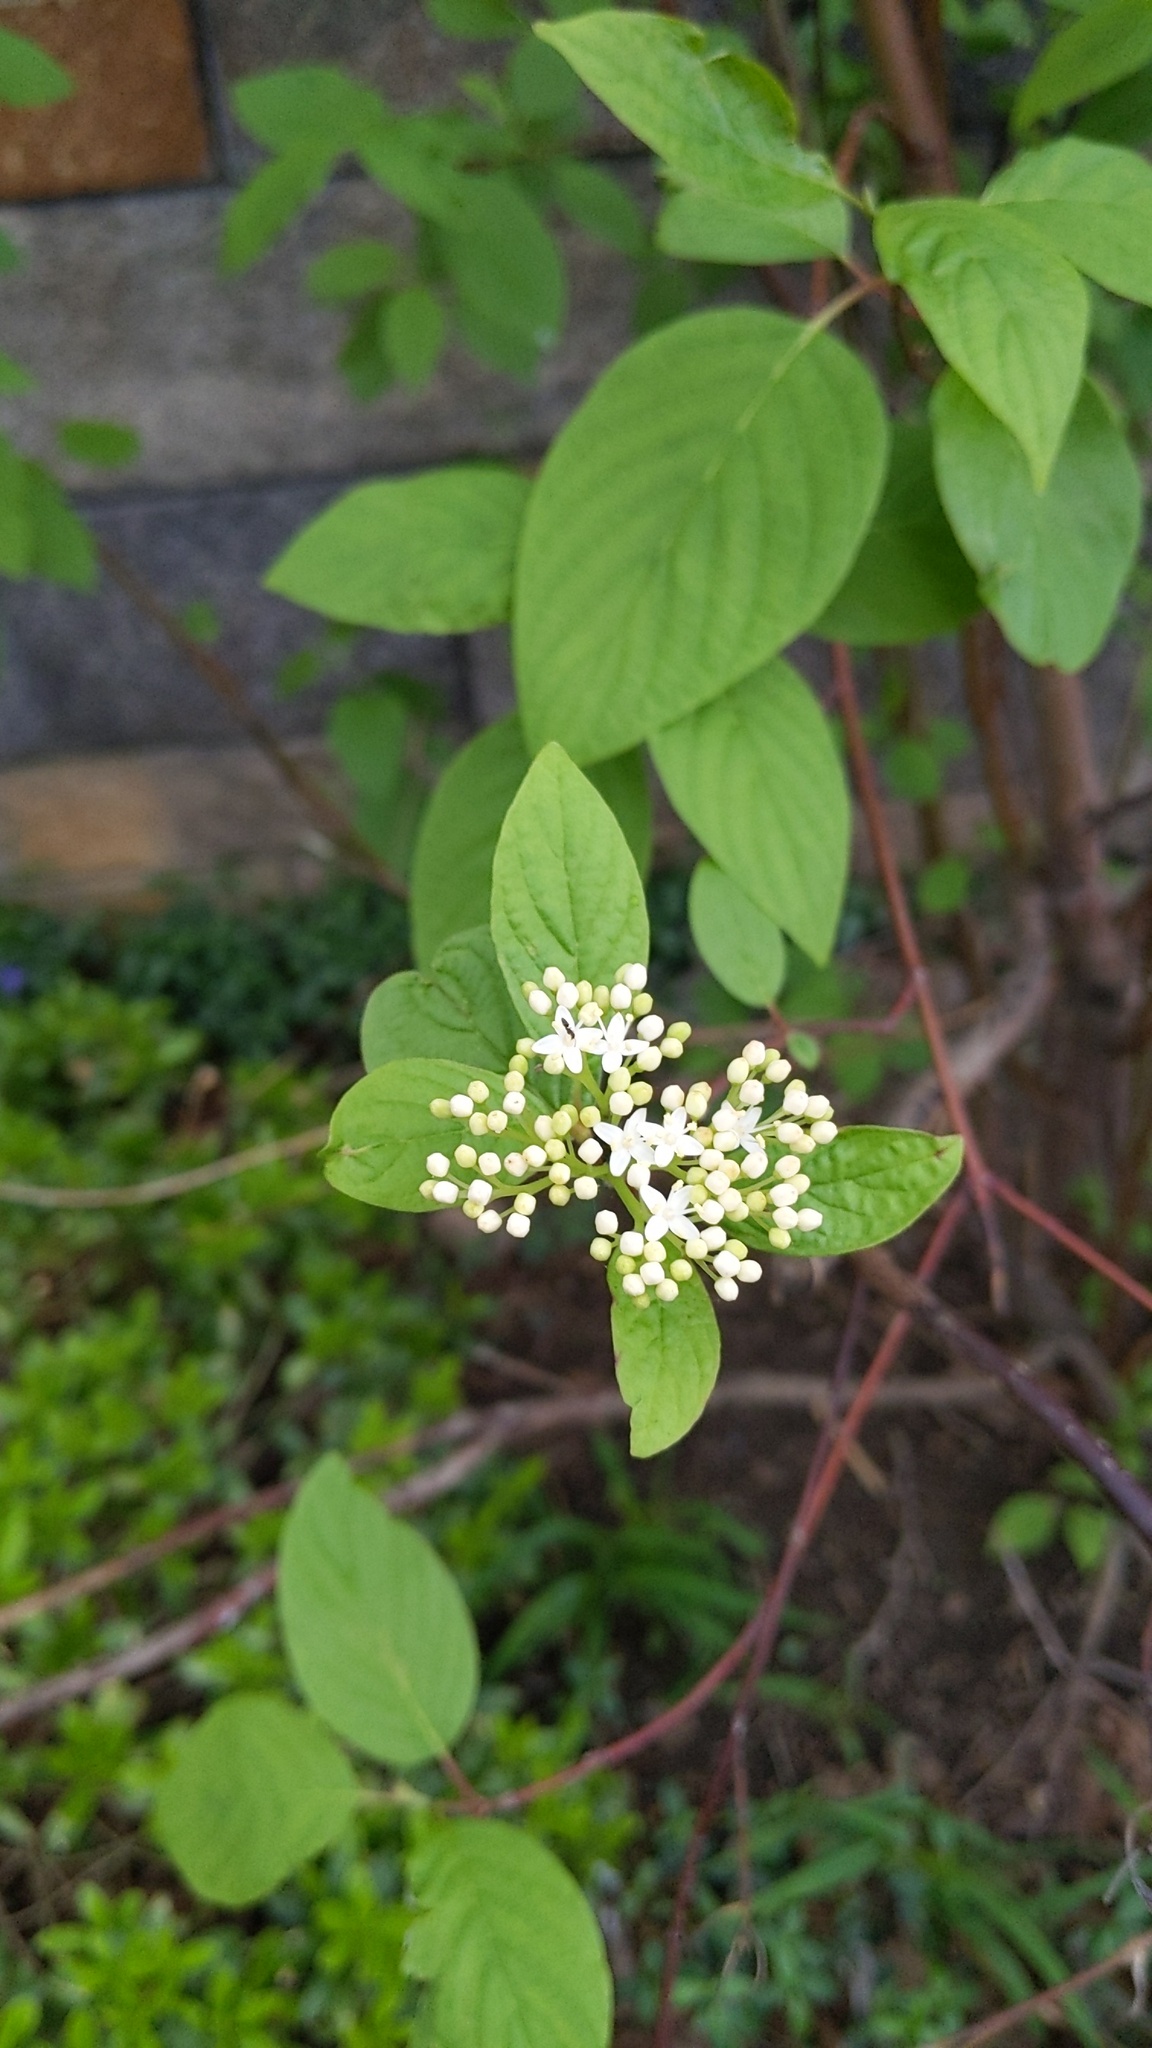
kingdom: Plantae
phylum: Tracheophyta
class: Magnoliopsida
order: Cornales
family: Cornaceae
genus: Cornus
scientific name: Cornus sericea
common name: Red-osier dogwood
